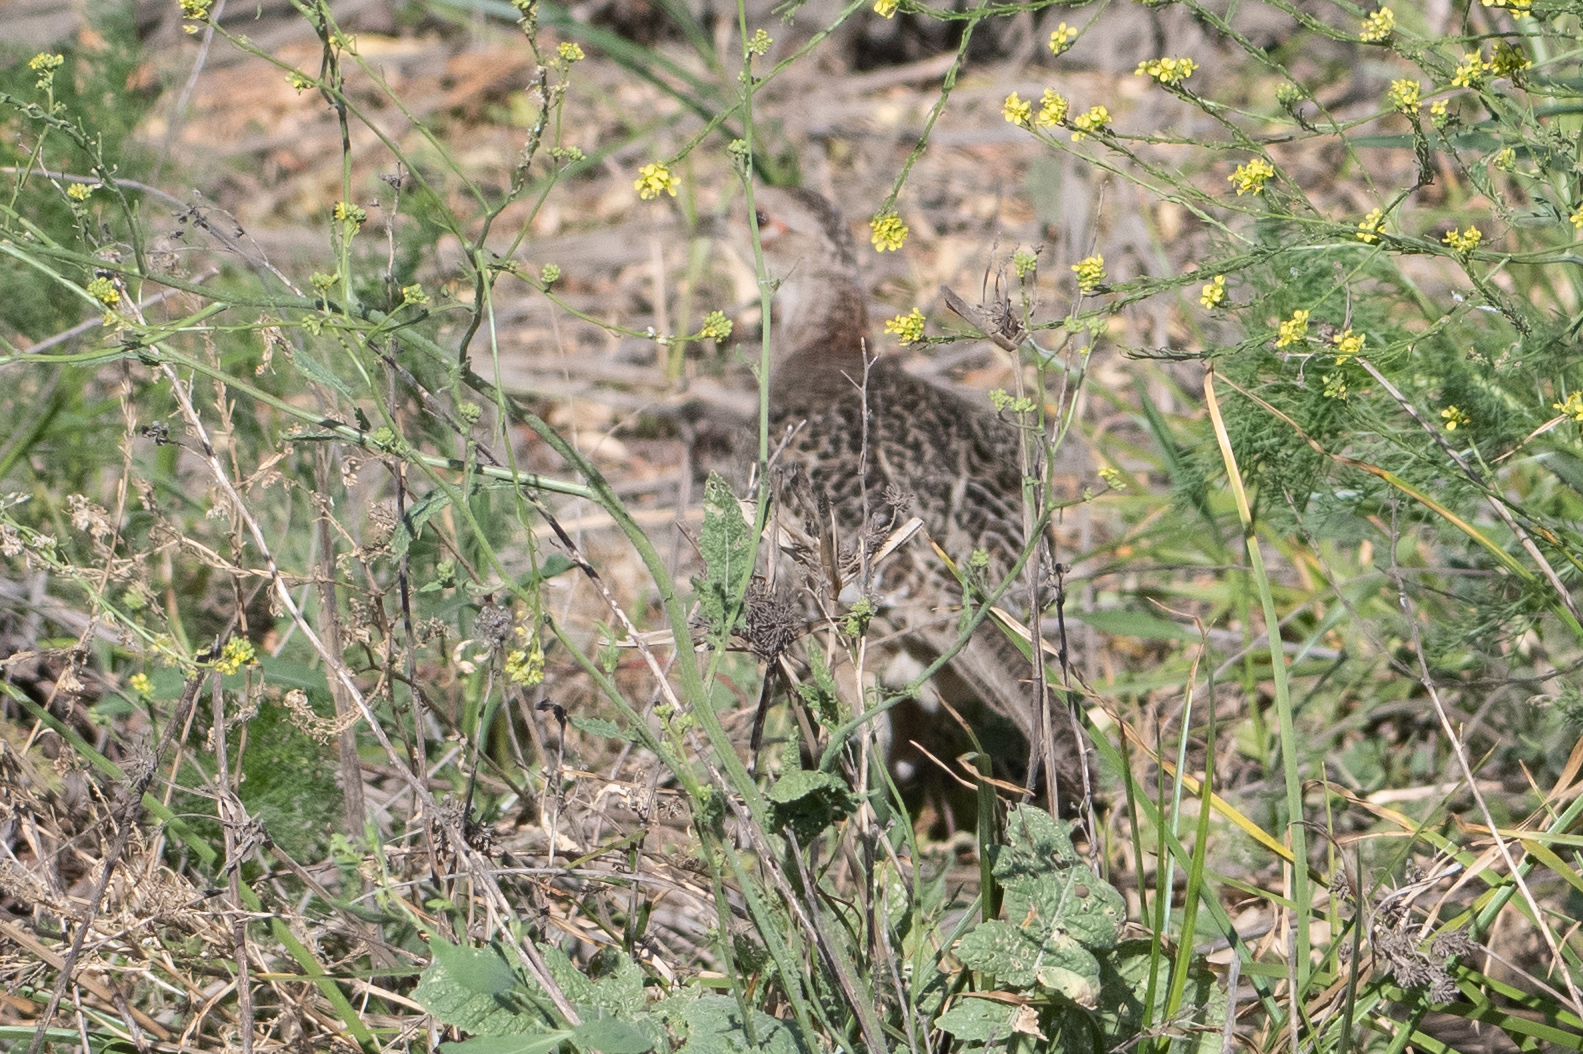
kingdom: Animalia
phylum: Chordata
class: Aves
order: Galliformes
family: Phasianidae
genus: Phasianus
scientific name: Phasianus colchicus
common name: Common pheasant
